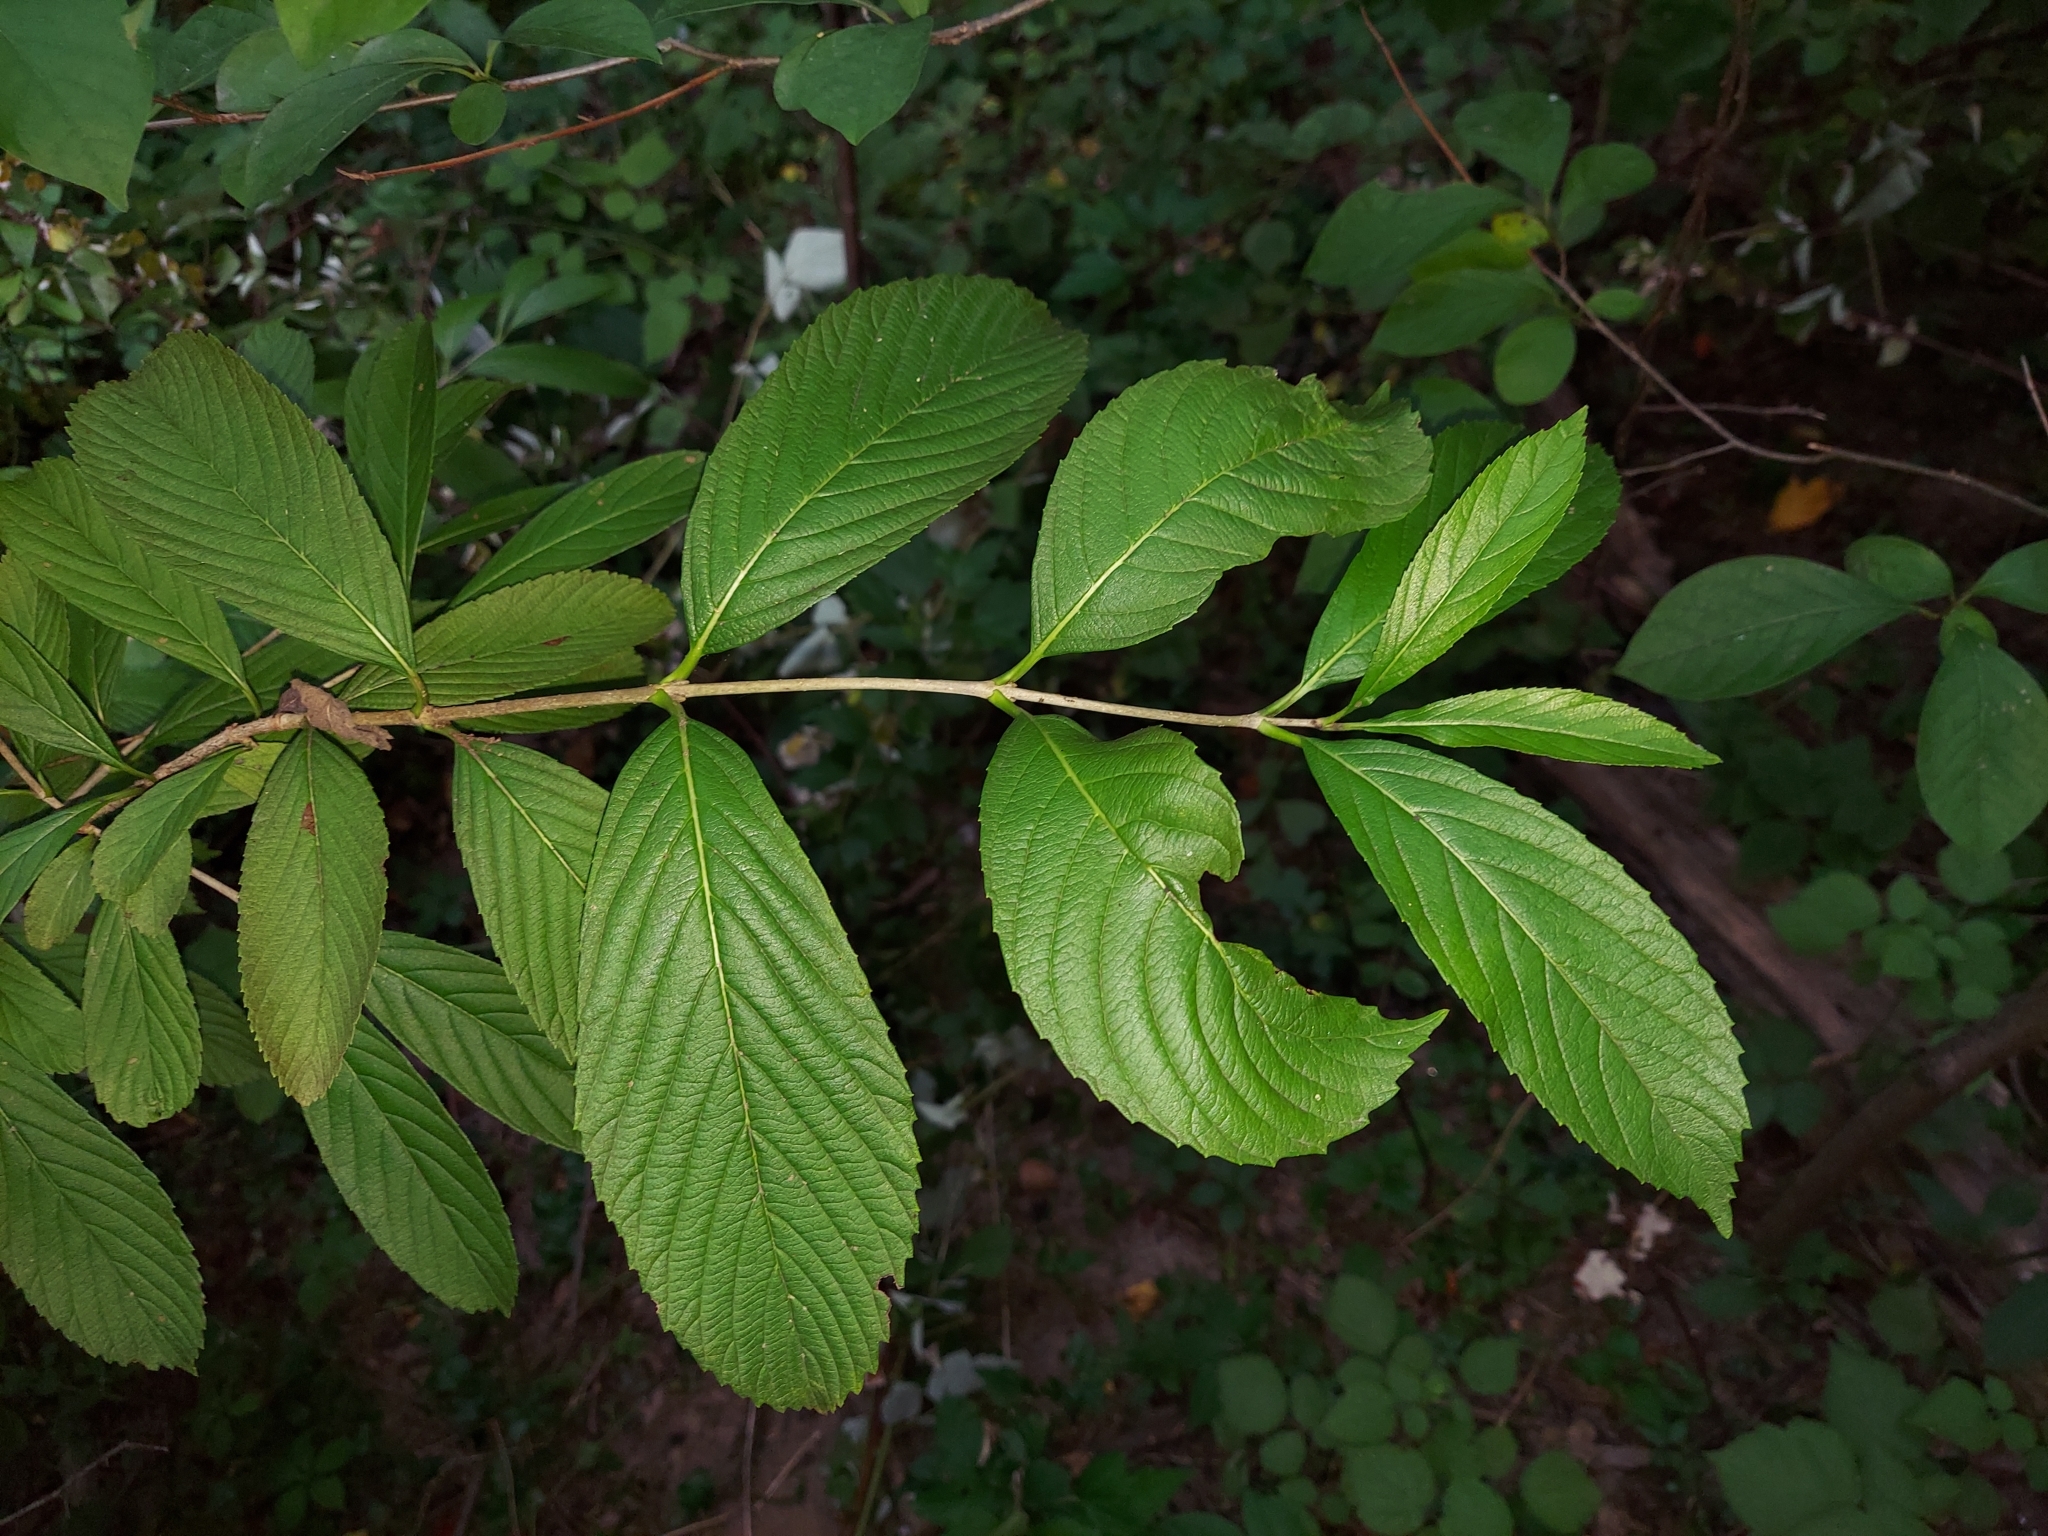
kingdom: Plantae
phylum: Tracheophyta
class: Magnoliopsida
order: Dipsacales
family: Viburnaceae
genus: Viburnum
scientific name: Viburnum sieboldii
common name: Siebold's arrowwood
